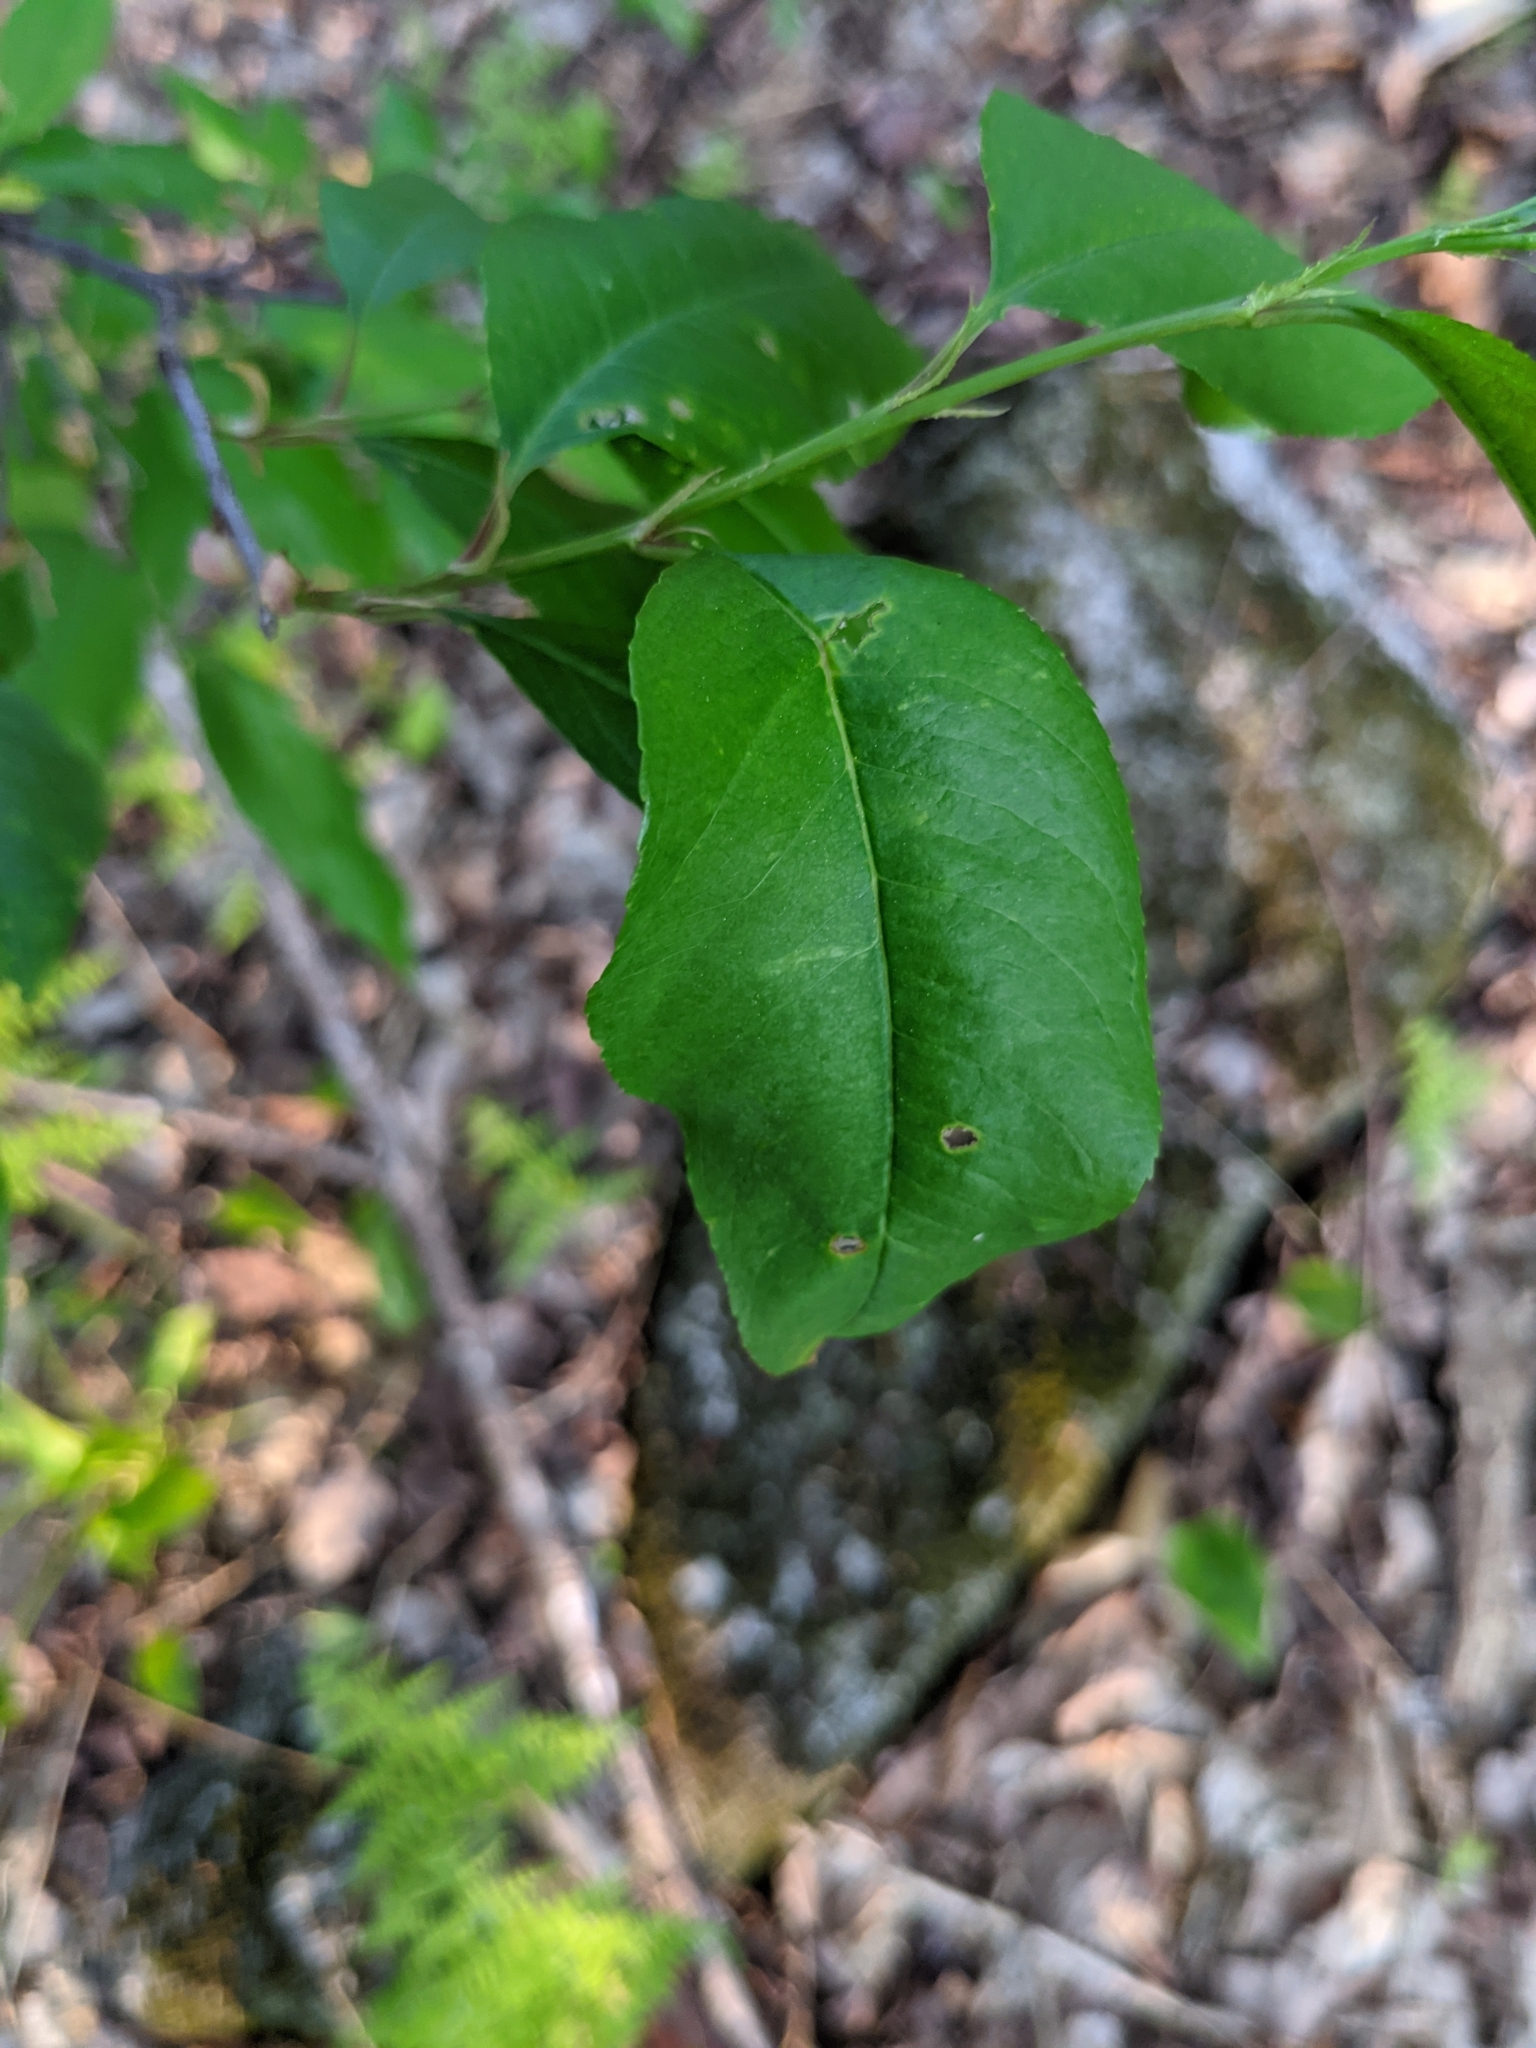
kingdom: Plantae
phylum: Tracheophyta
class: Magnoliopsida
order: Rosales
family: Rosaceae
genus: Prunus
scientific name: Prunus serotina
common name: Black cherry
